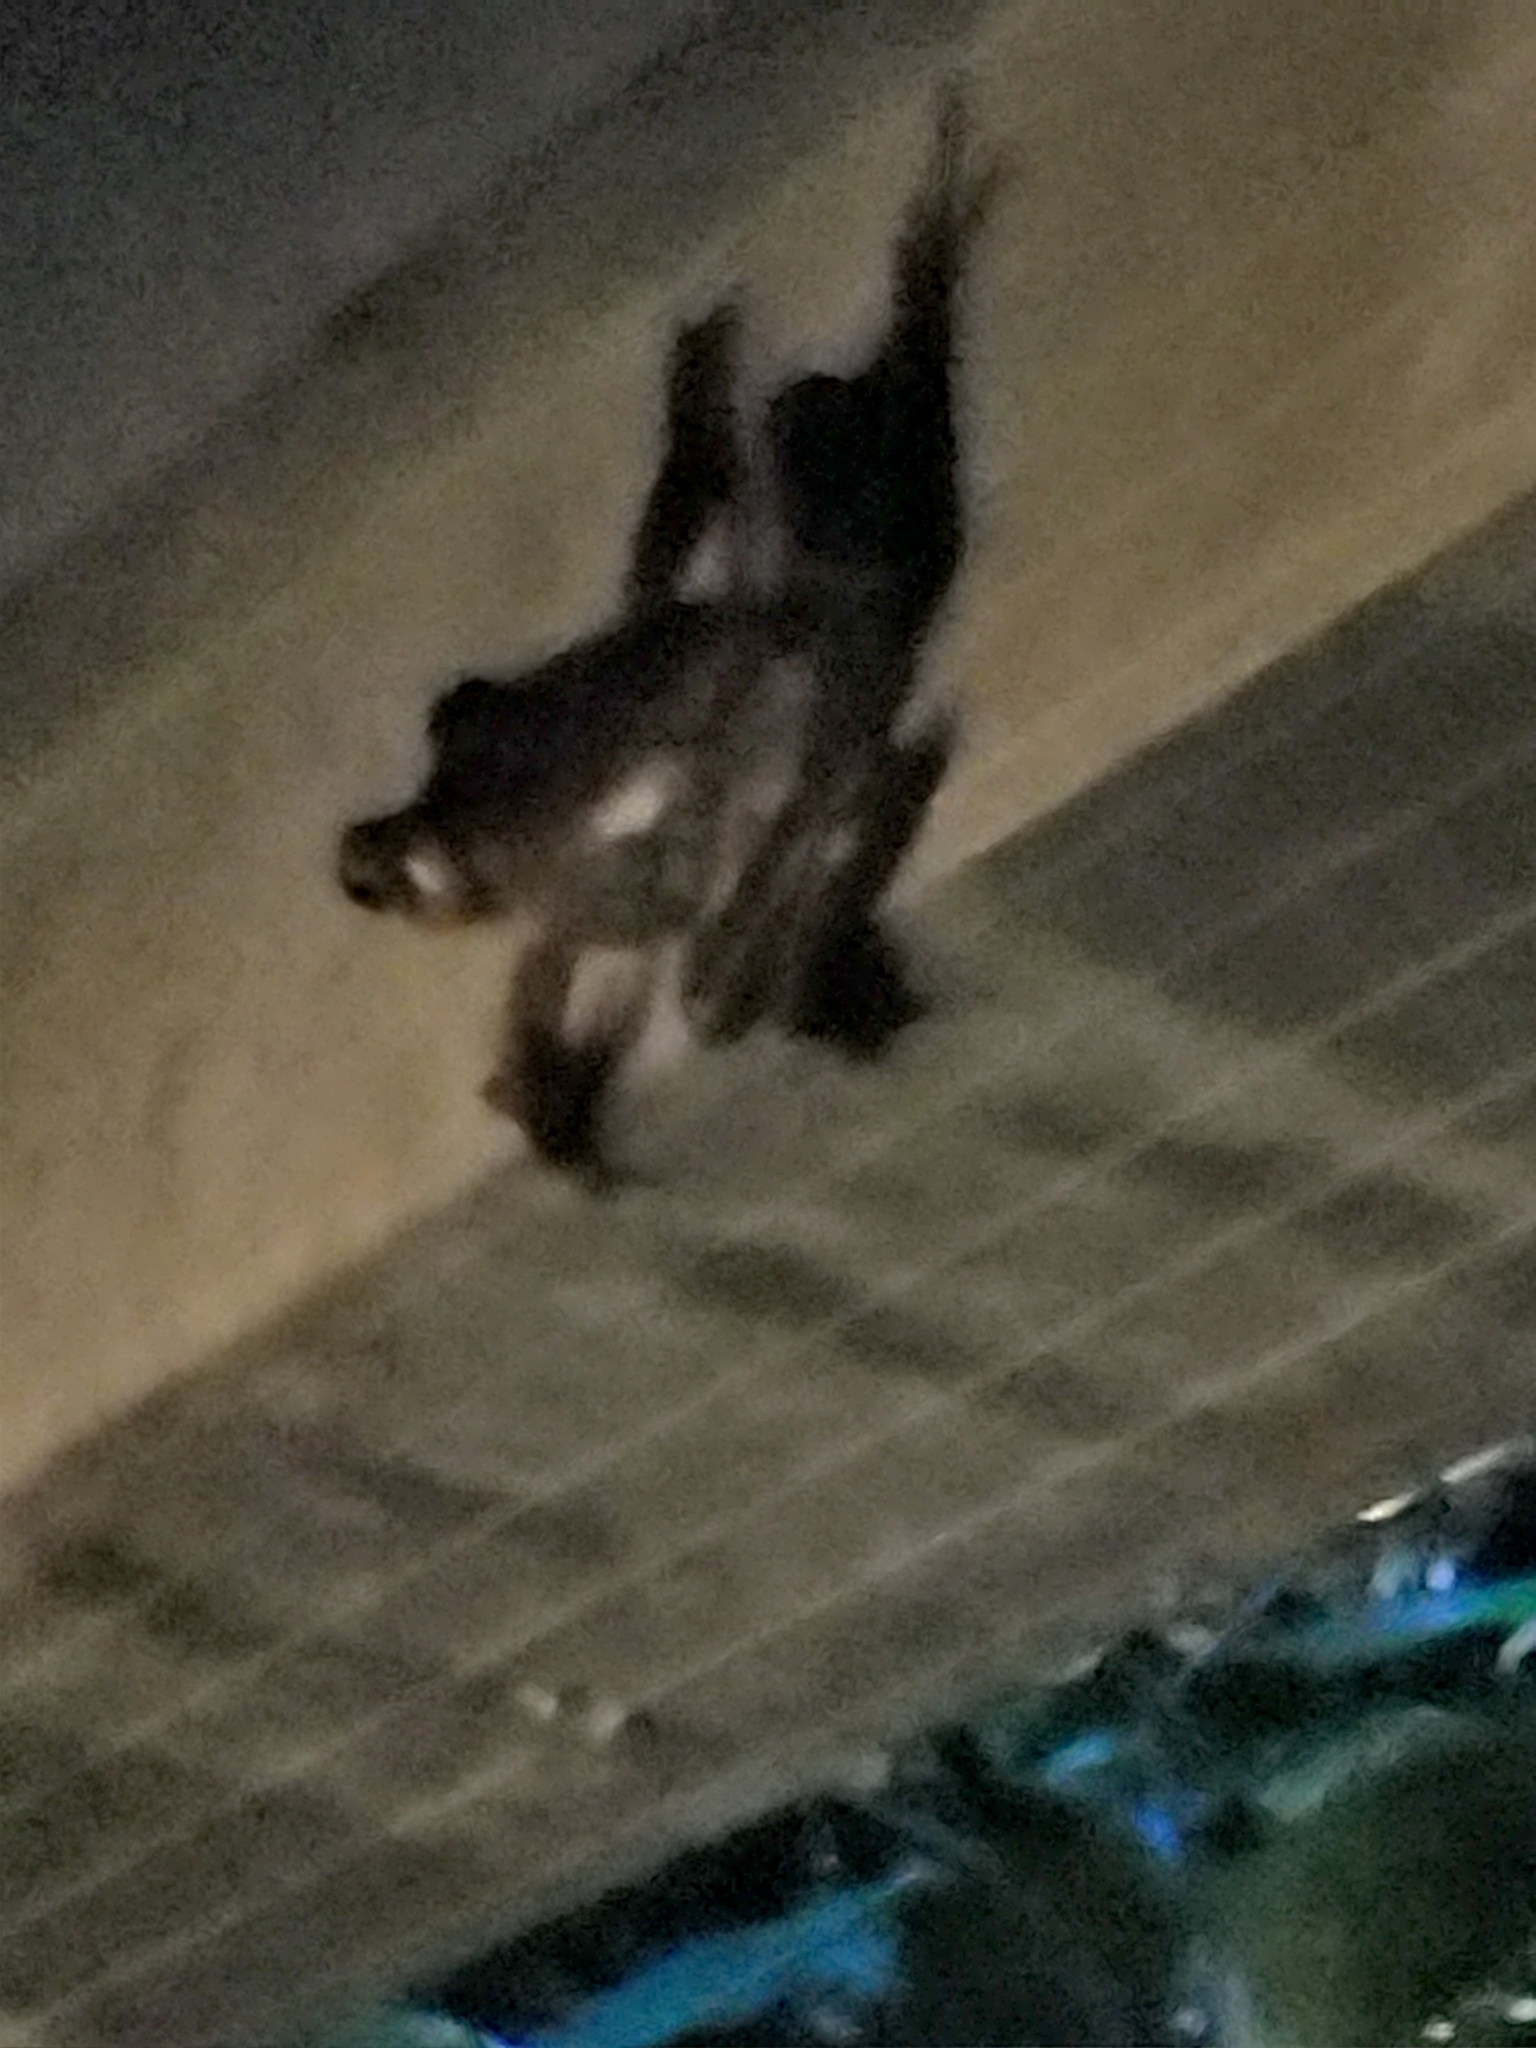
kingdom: Animalia
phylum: Chordata
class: Amphibia
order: Anura
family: Hylidae
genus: Osteopilus
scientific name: Osteopilus septentrionalis
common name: Cuban treefrog
